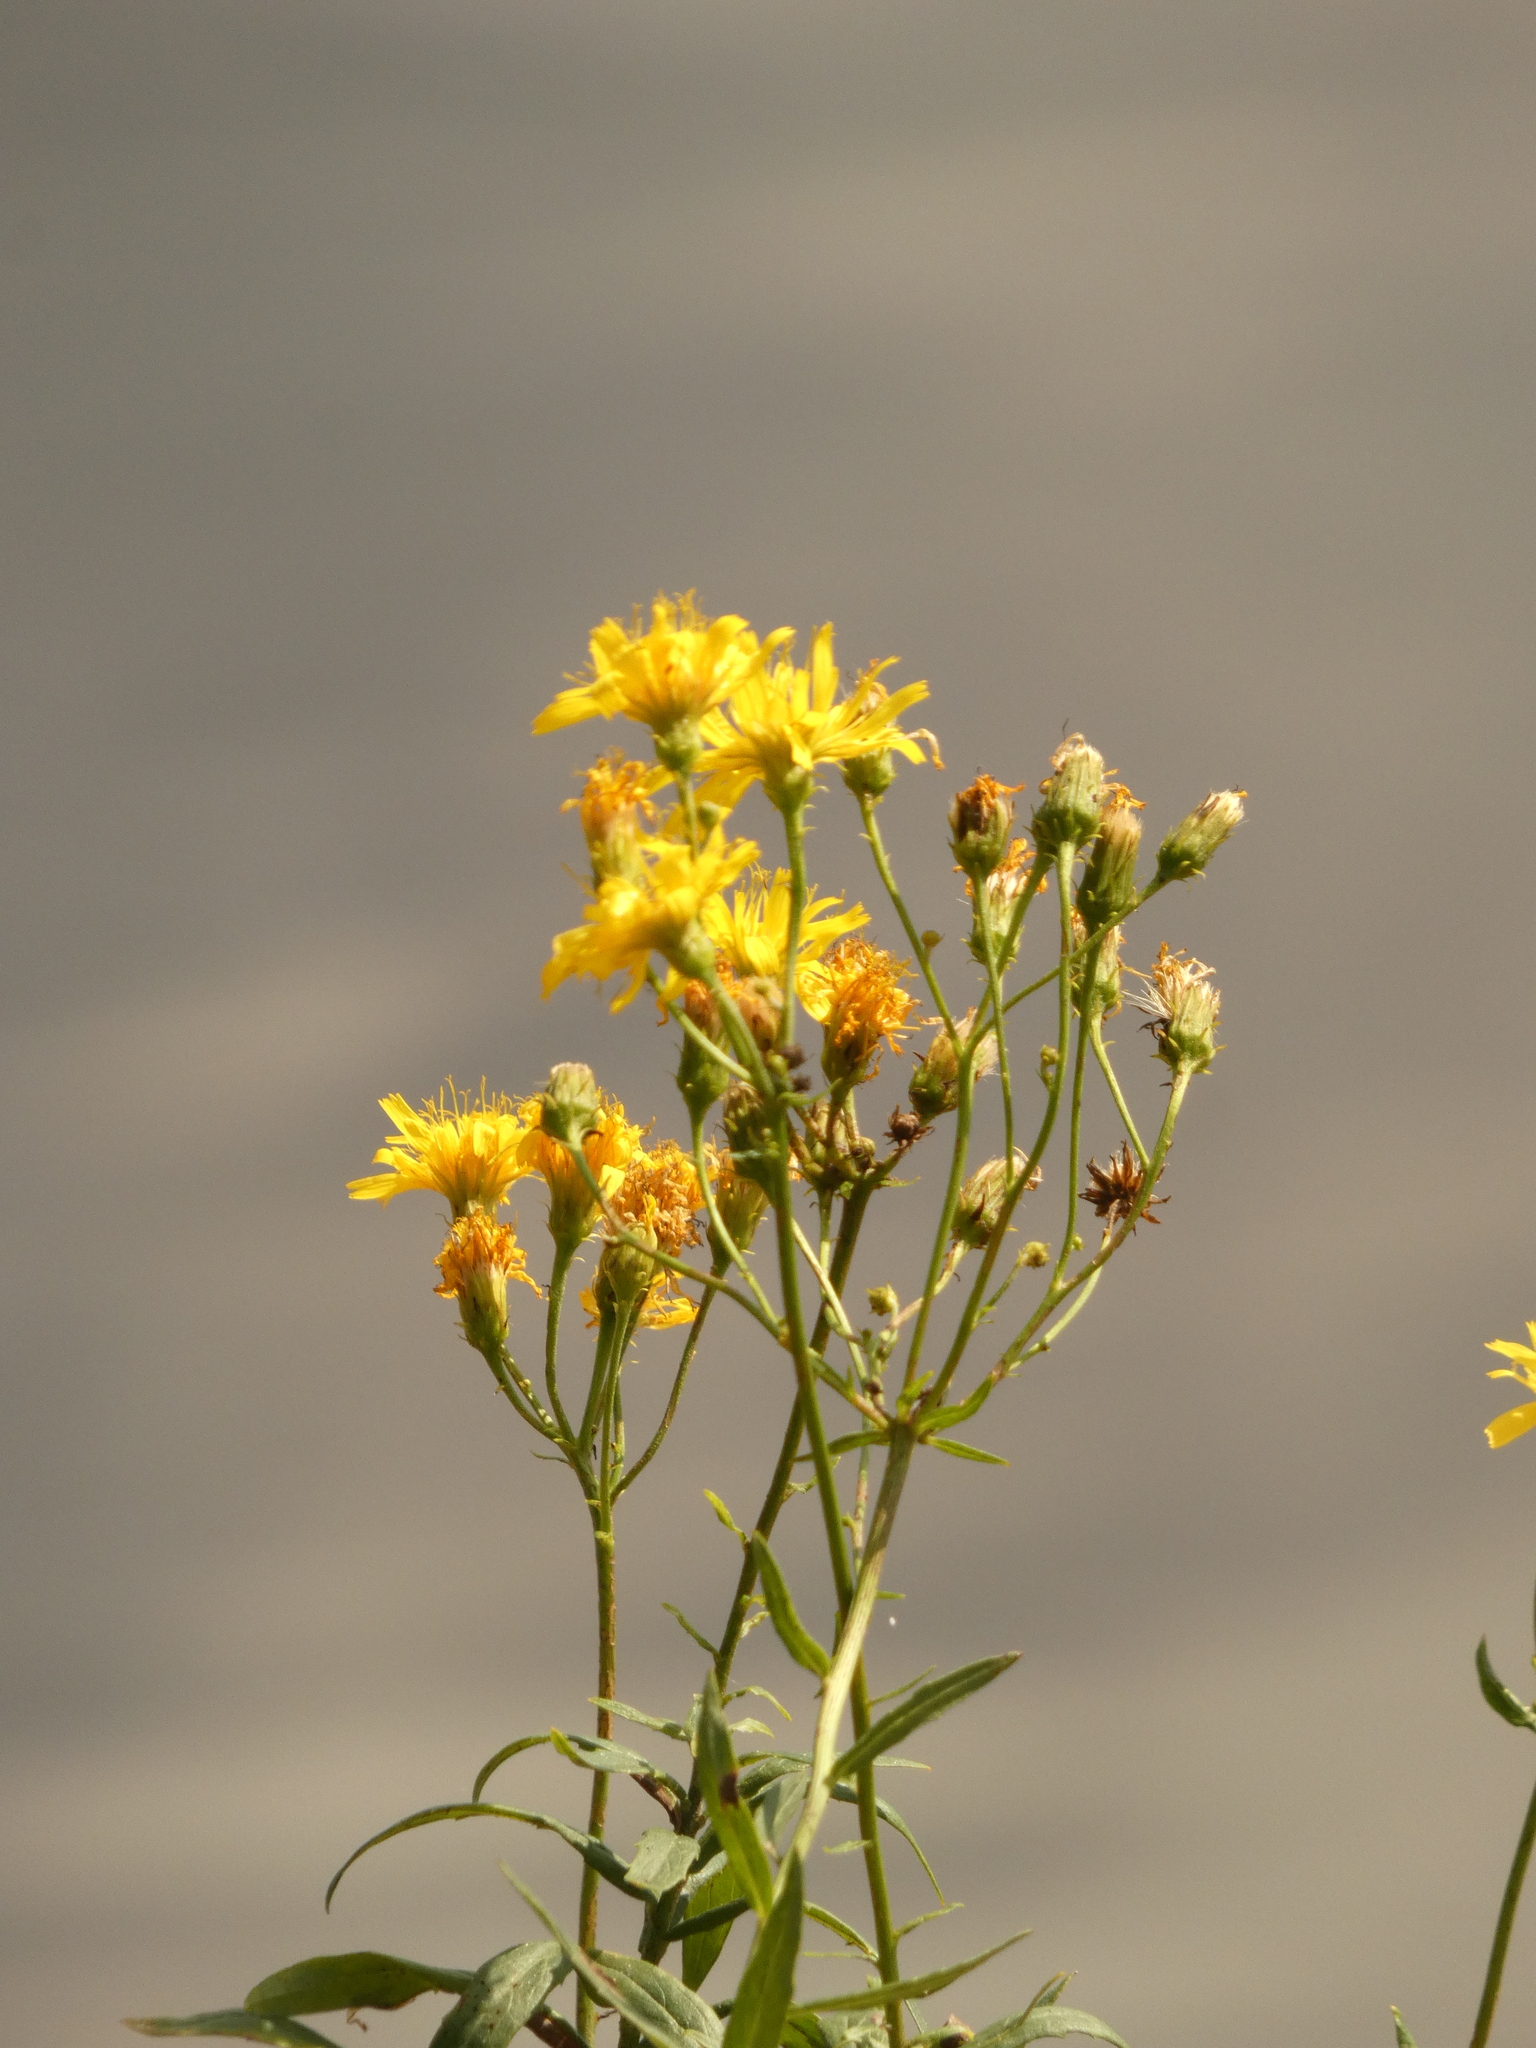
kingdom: Plantae
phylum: Tracheophyta
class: Magnoliopsida
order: Asterales
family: Asteraceae
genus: Hieracium
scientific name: Hieracium umbellatum
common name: Northern hawkweed
